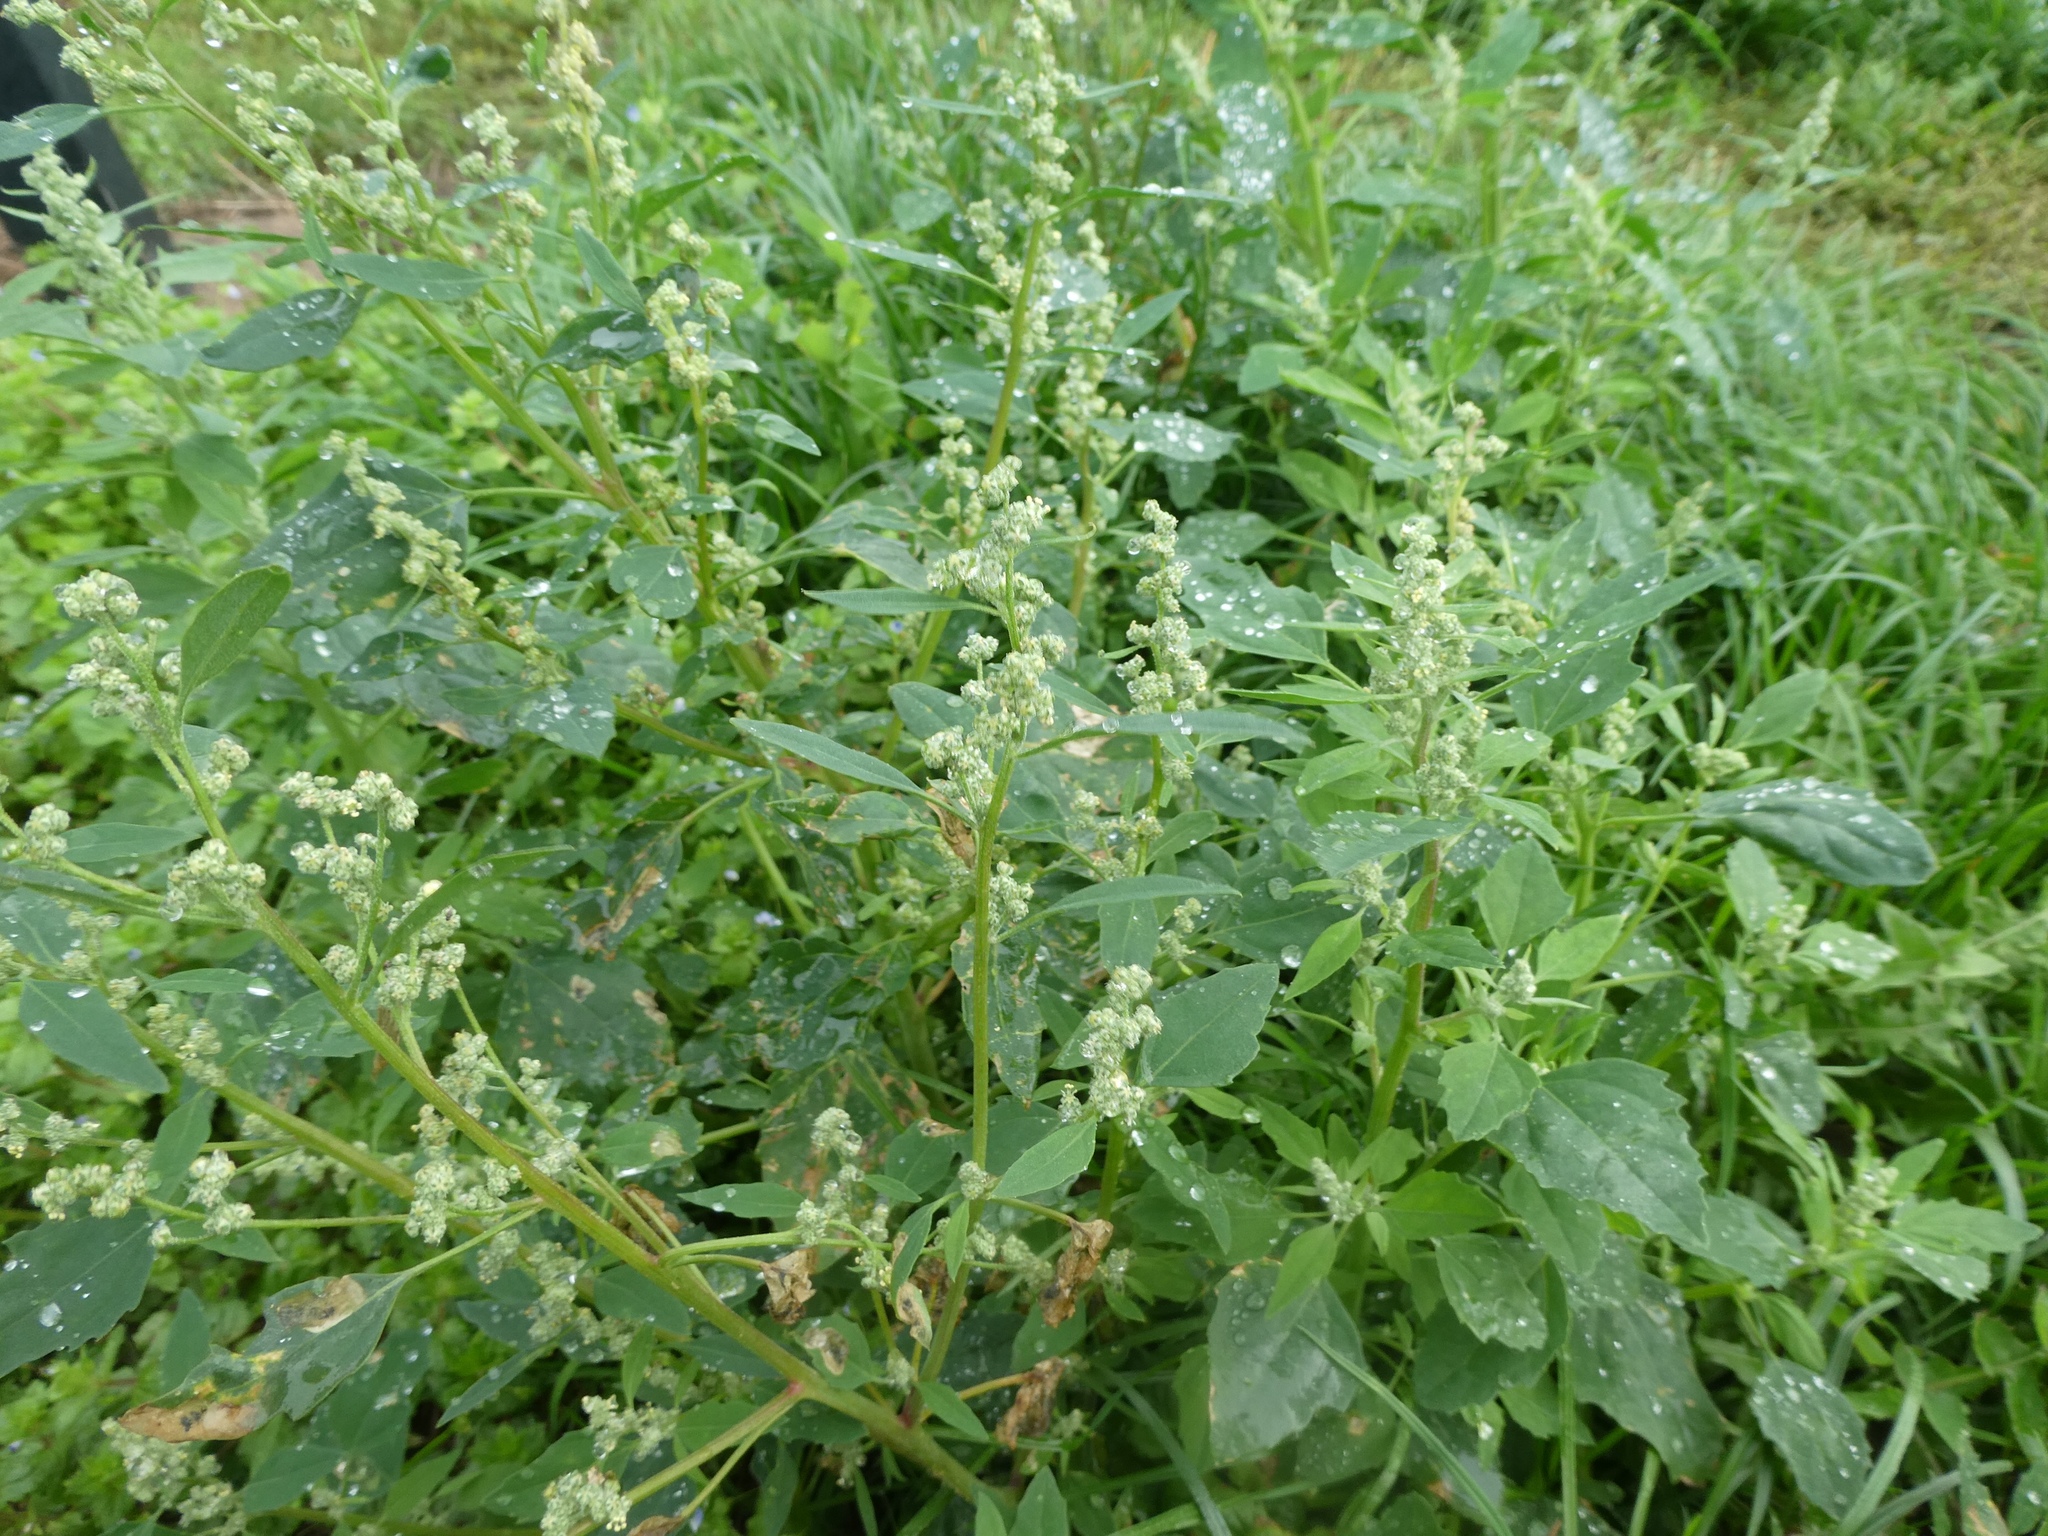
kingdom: Plantae
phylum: Tracheophyta
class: Magnoliopsida
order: Caryophyllales
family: Amaranthaceae
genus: Chenopodium
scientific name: Chenopodium album
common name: Fat-hen
